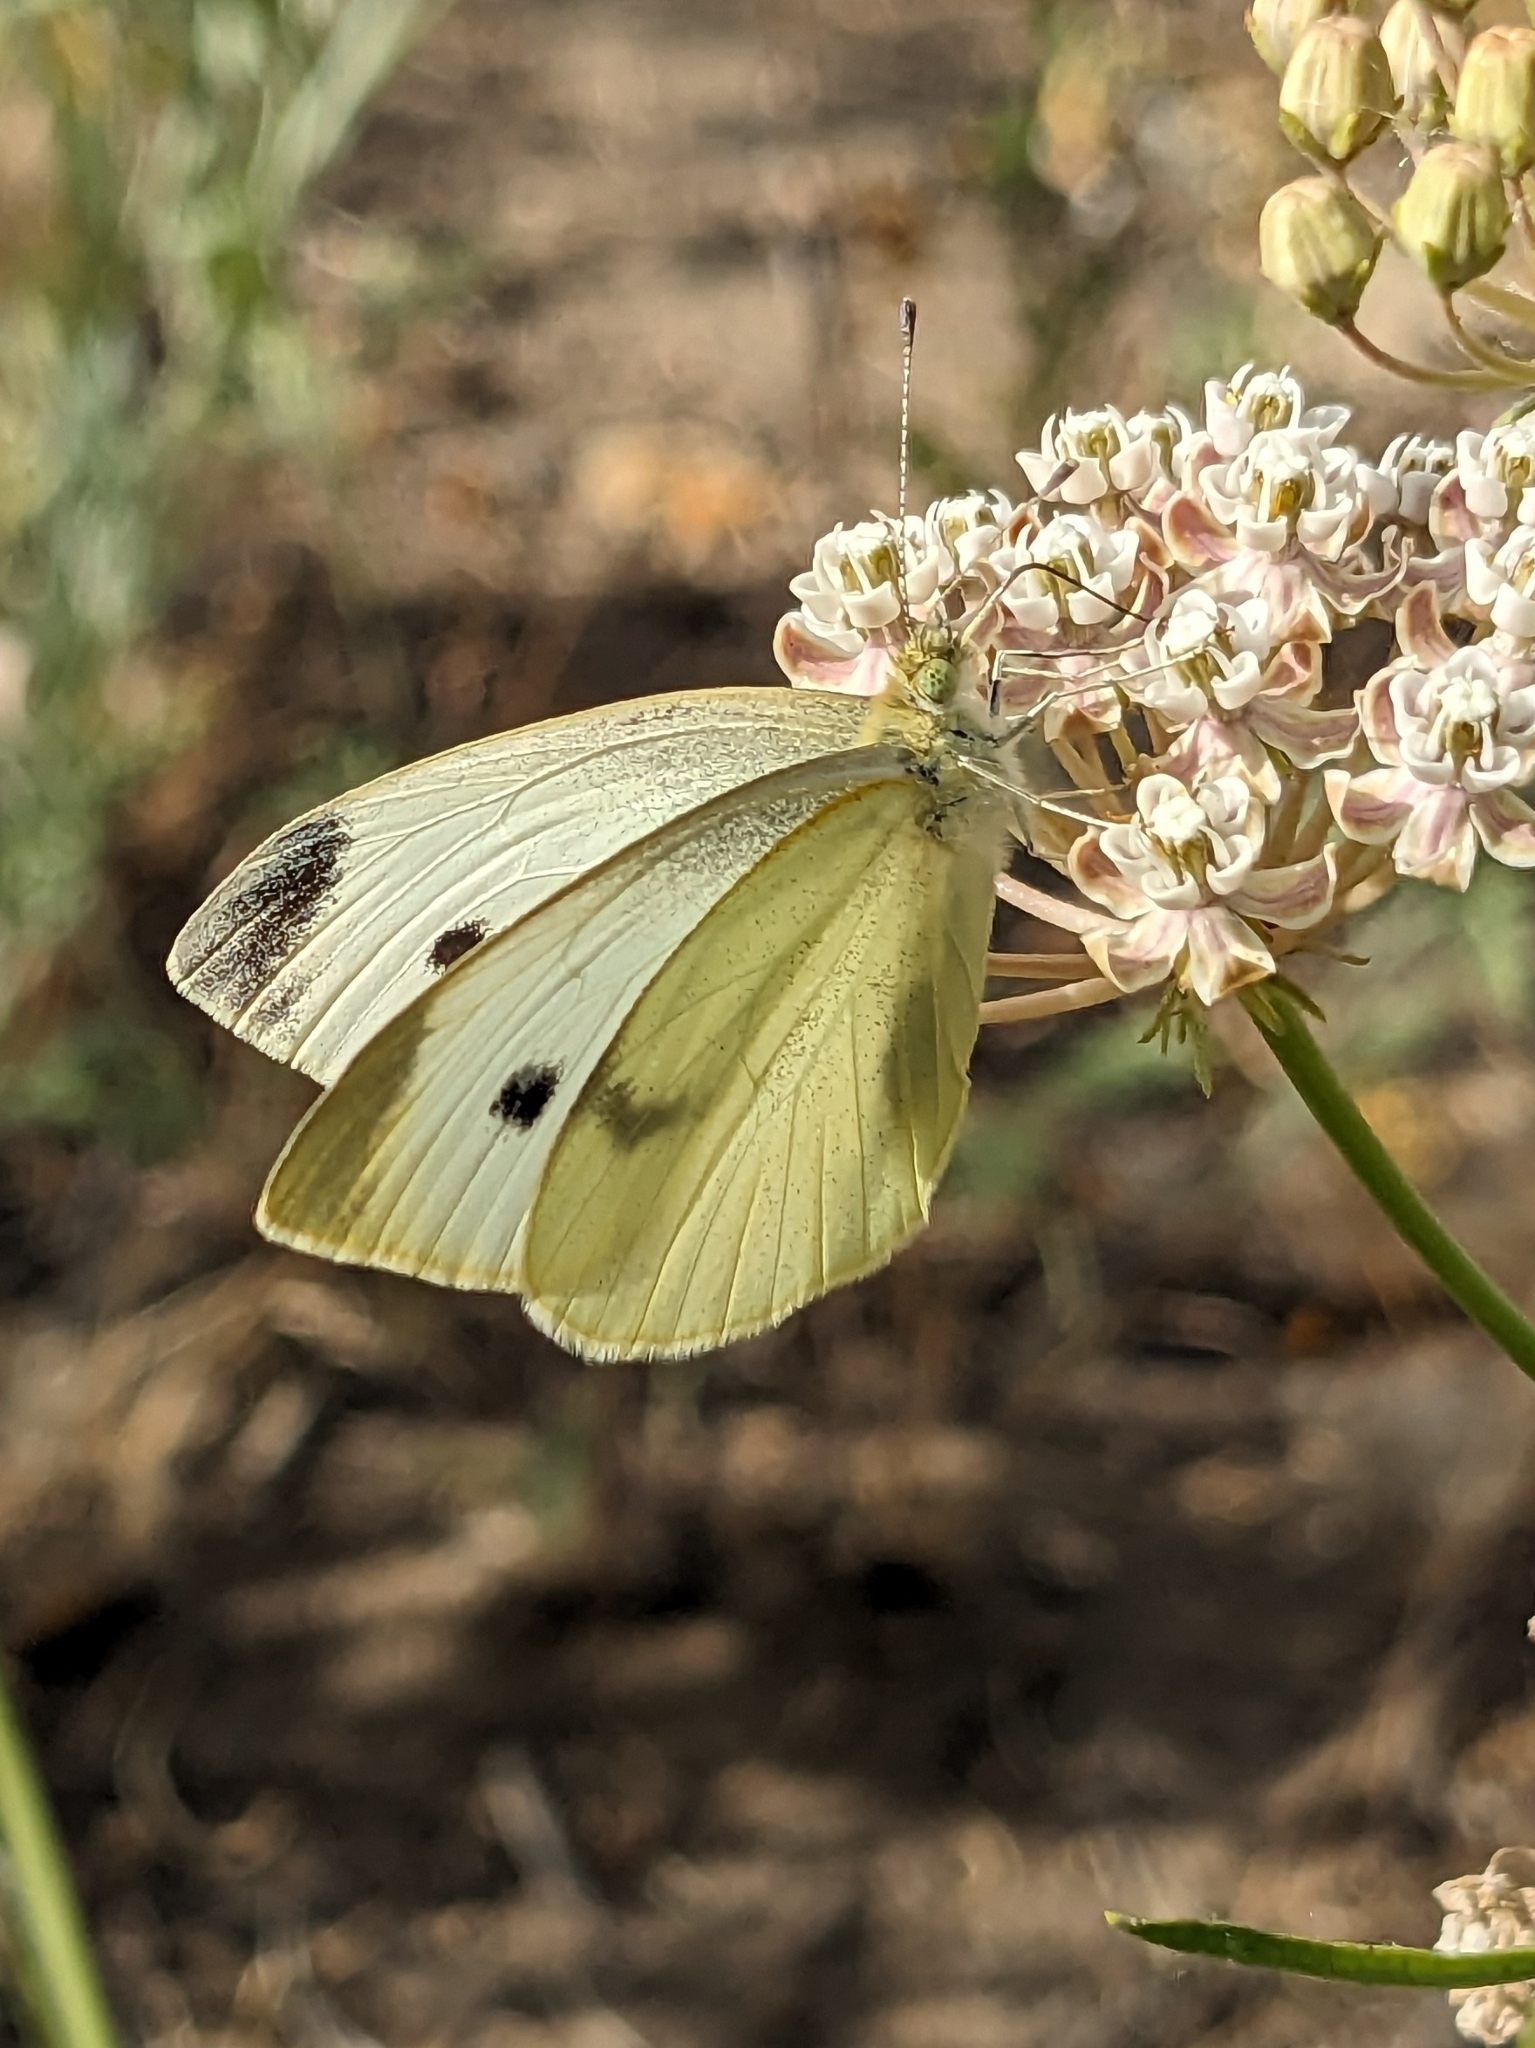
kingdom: Animalia
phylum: Arthropoda
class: Insecta
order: Lepidoptera
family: Pieridae
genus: Pieris
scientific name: Pieris rapae
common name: Small white
